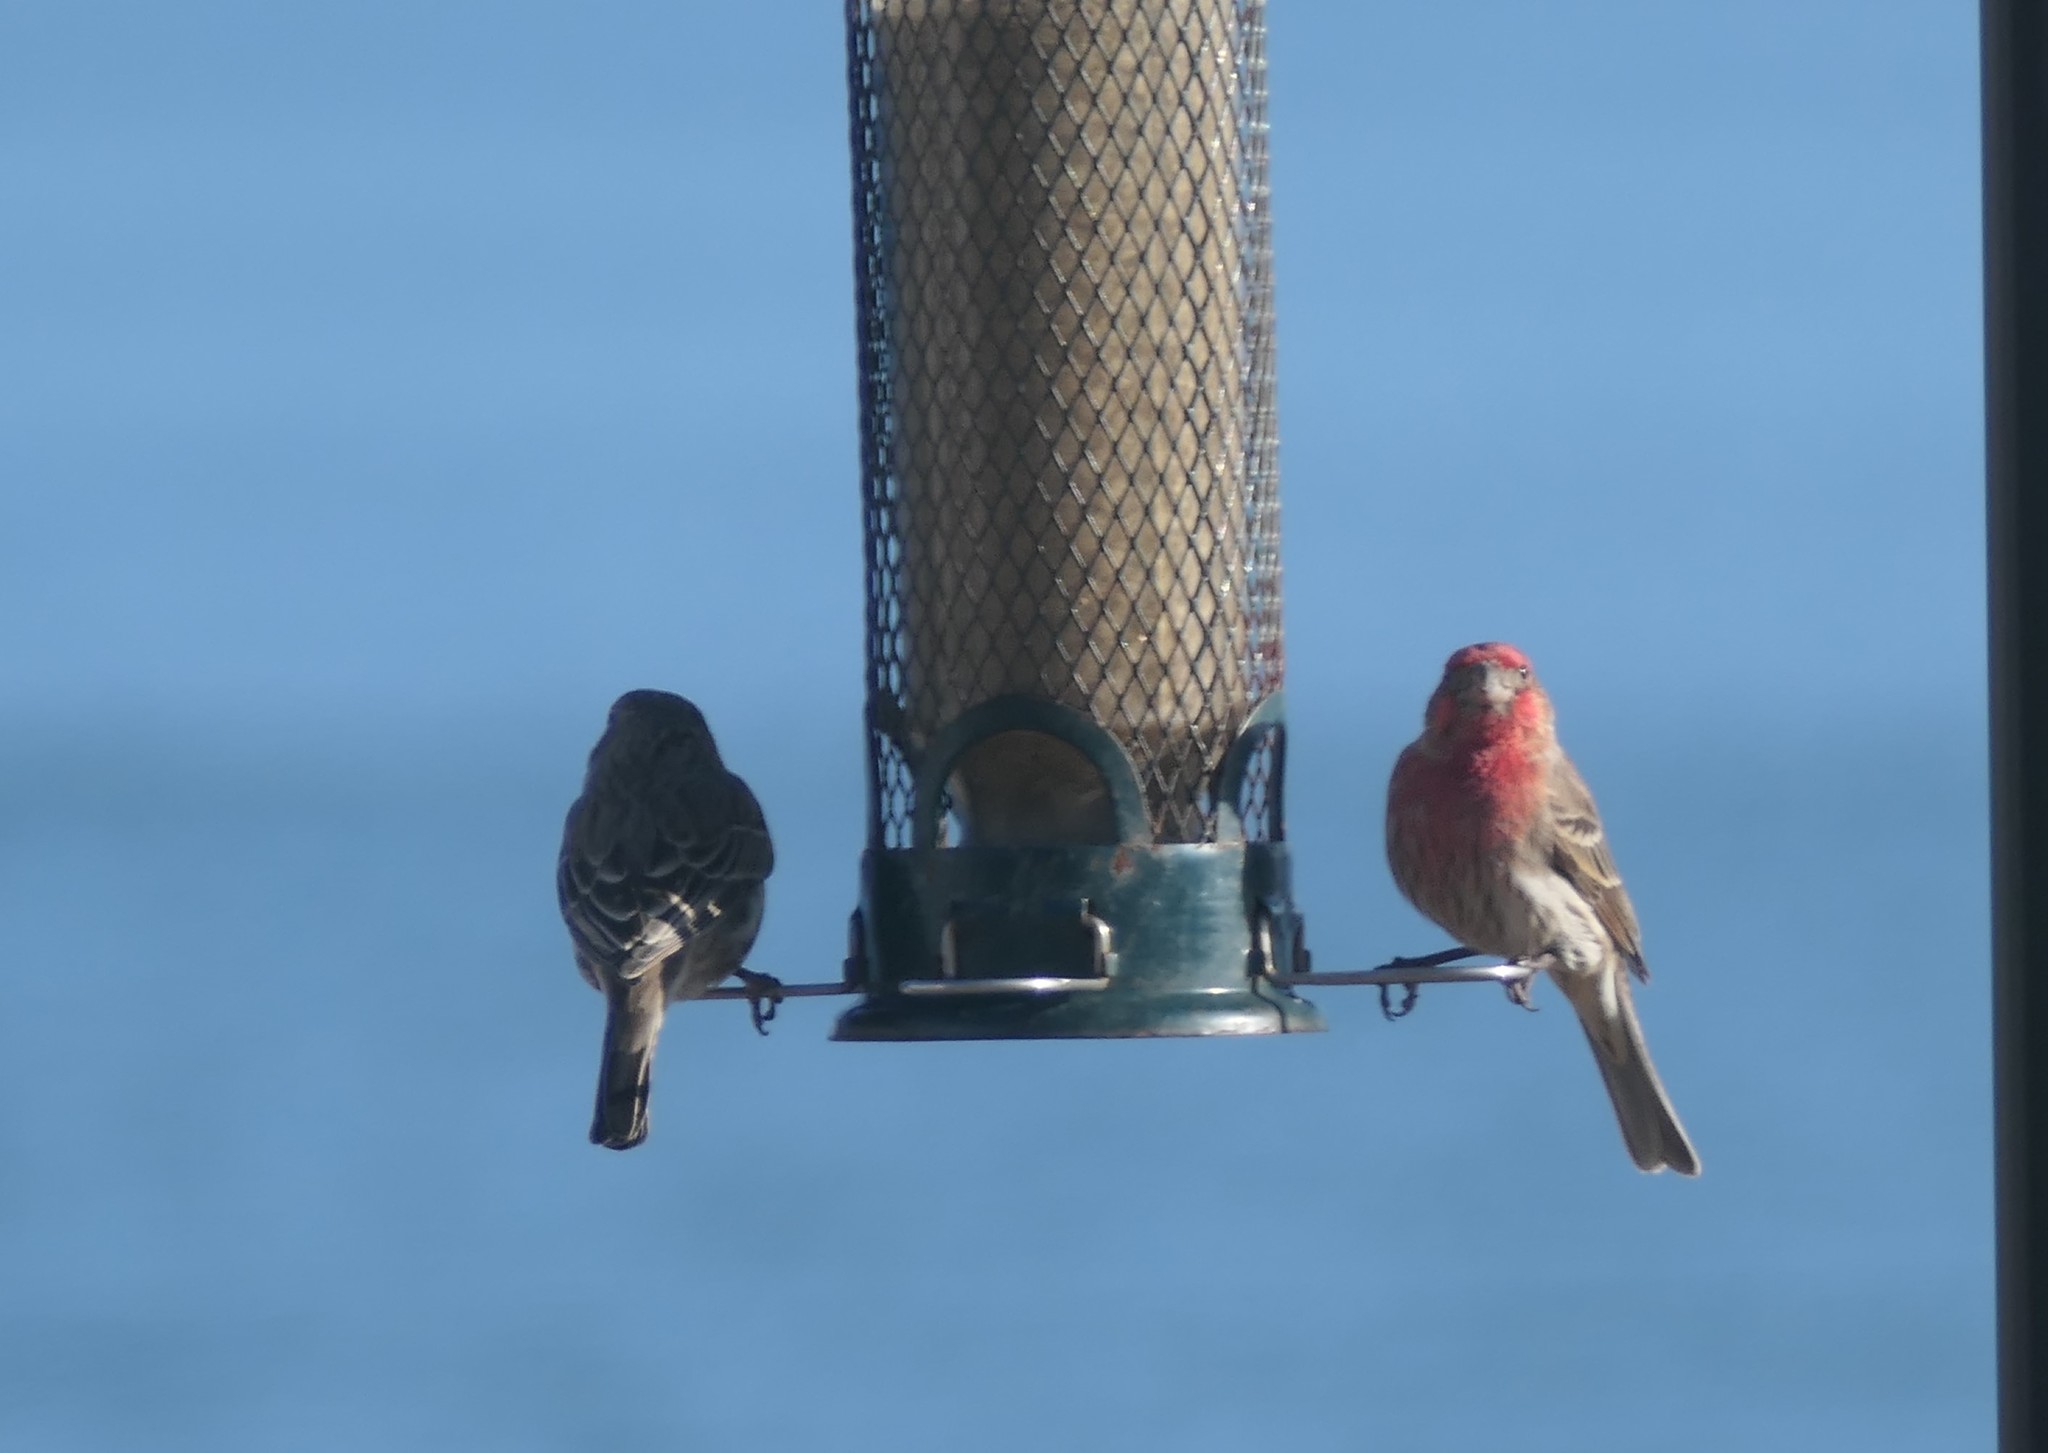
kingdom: Animalia
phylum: Chordata
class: Aves
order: Passeriformes
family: Fringillidae
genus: Haemorhous
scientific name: Haemorhous mexicanus
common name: House finch
